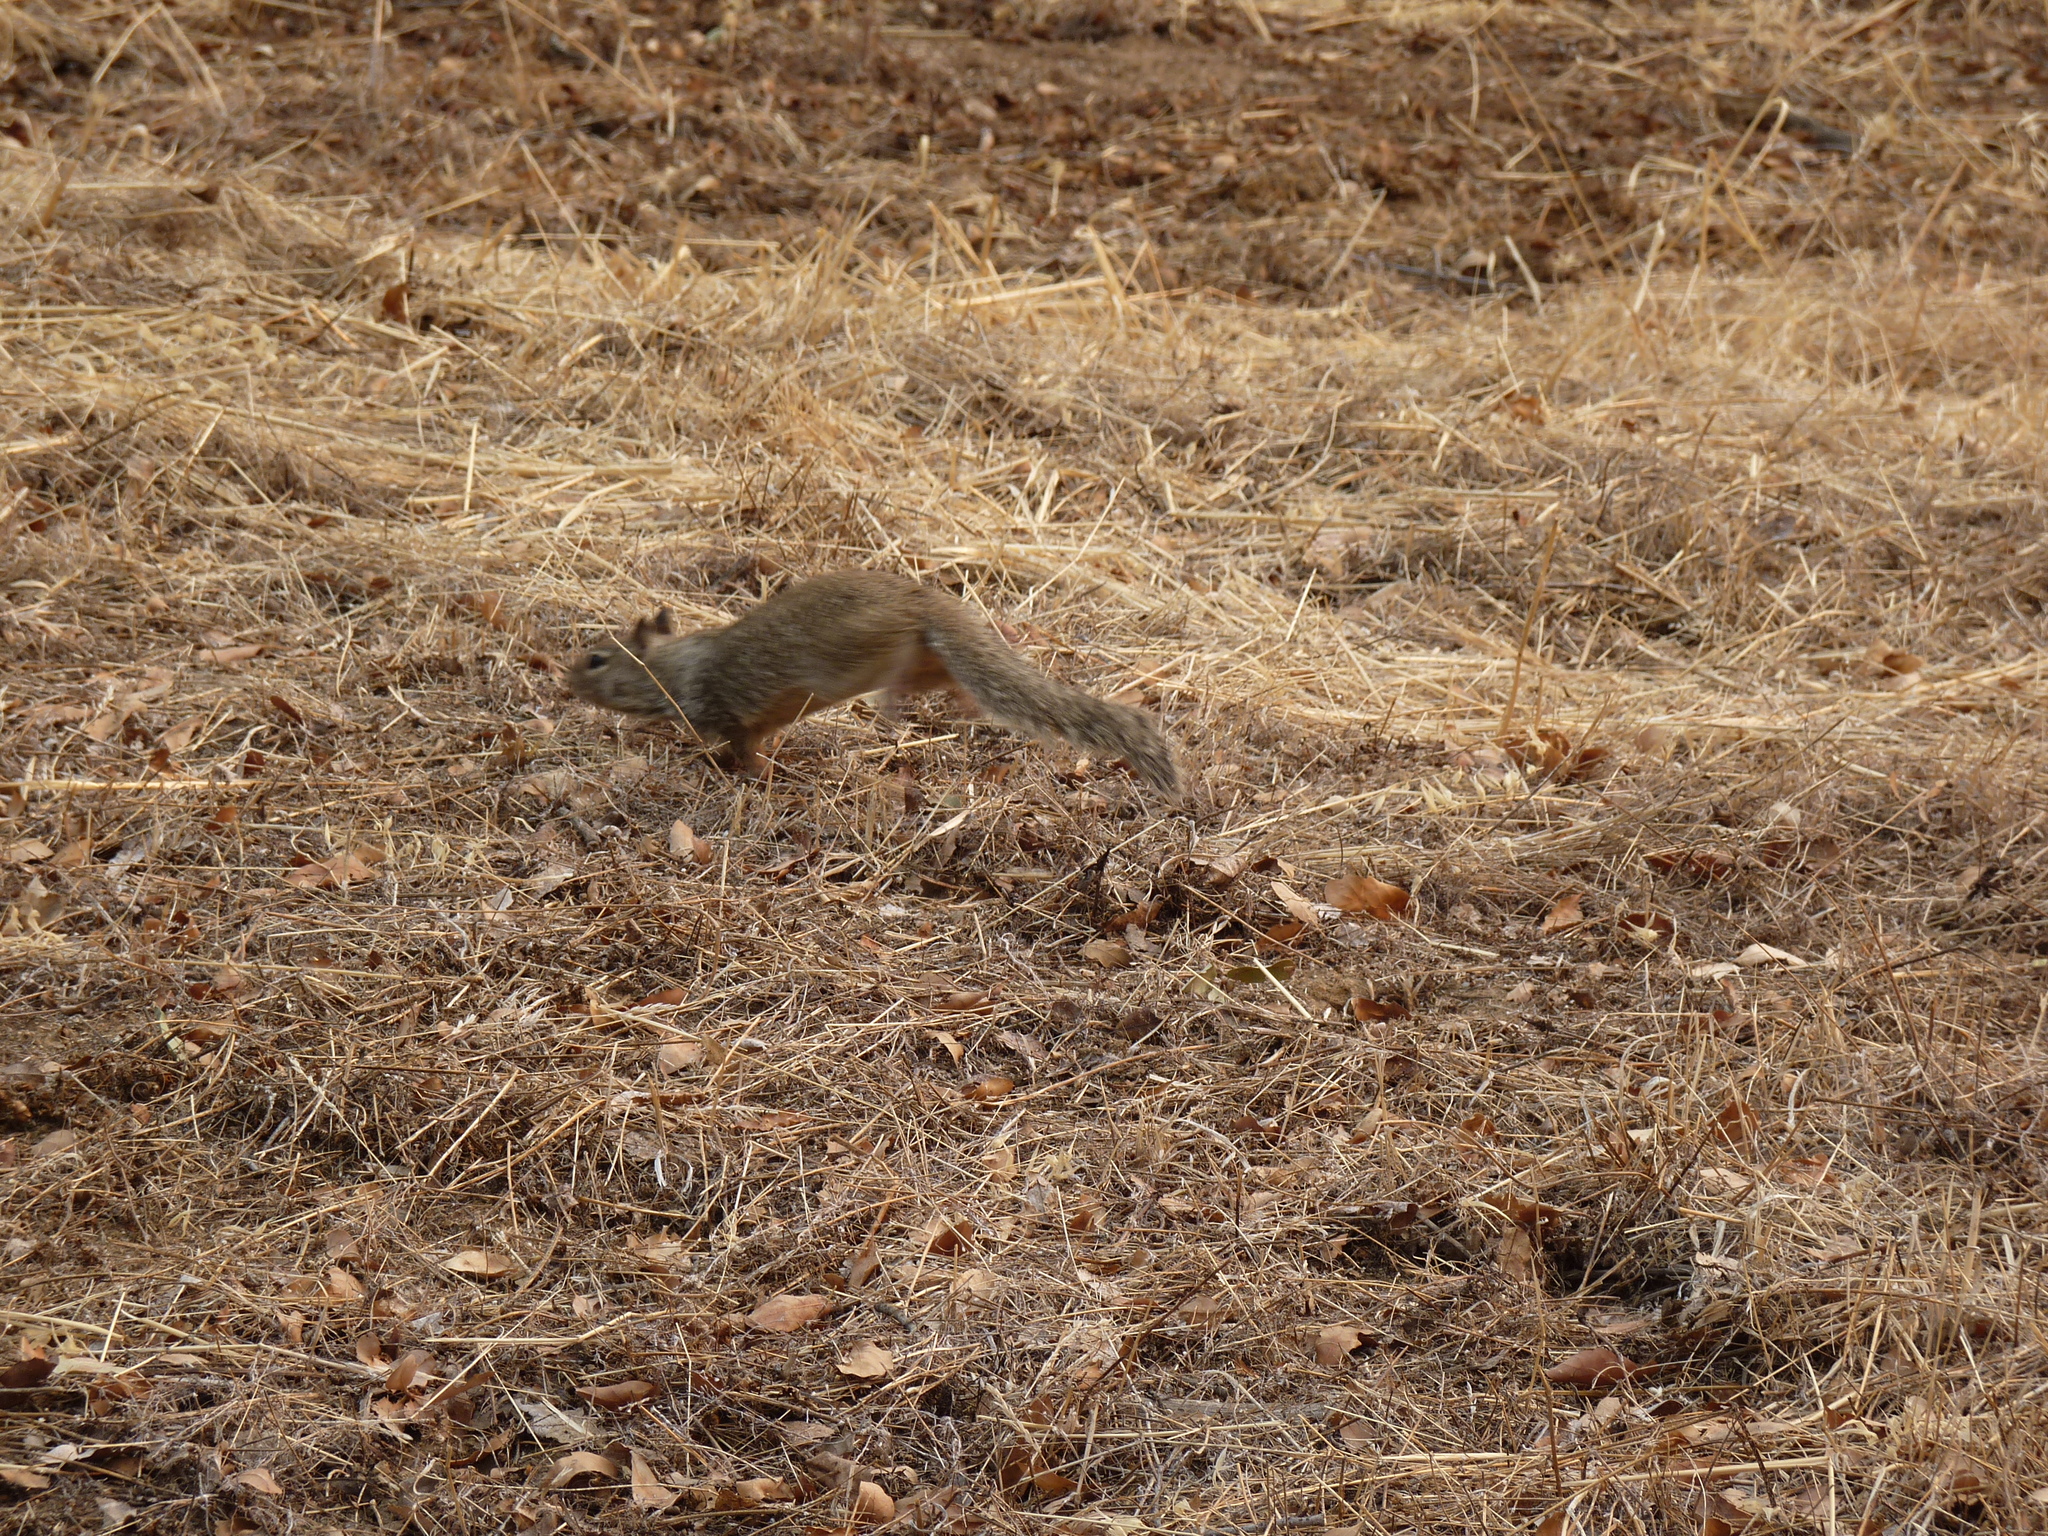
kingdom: Animalia
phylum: Chordata
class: Mammalia
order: Rodentia
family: Sciuridae
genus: Otospermophilus
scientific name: Otospermophilus beecheyi
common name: California ground squirrel
